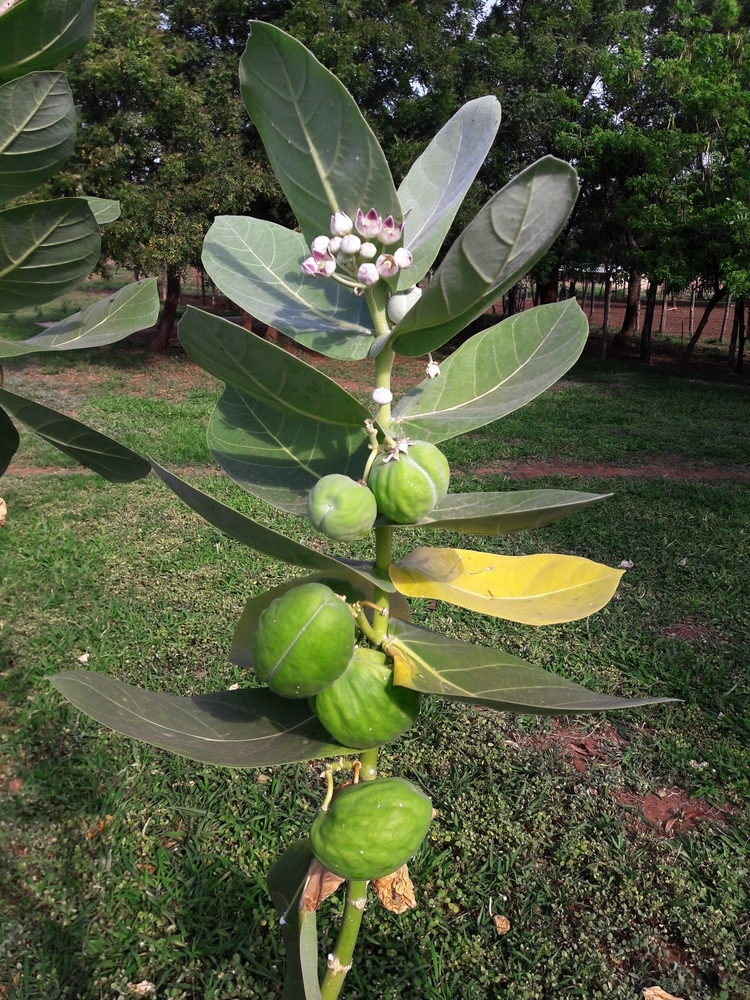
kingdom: Plantae
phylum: Tracheophyta
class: Magnoliopsida
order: Gentianales
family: Apocynaceae
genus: Calotropis
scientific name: Calotropis procera
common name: Roostertree
